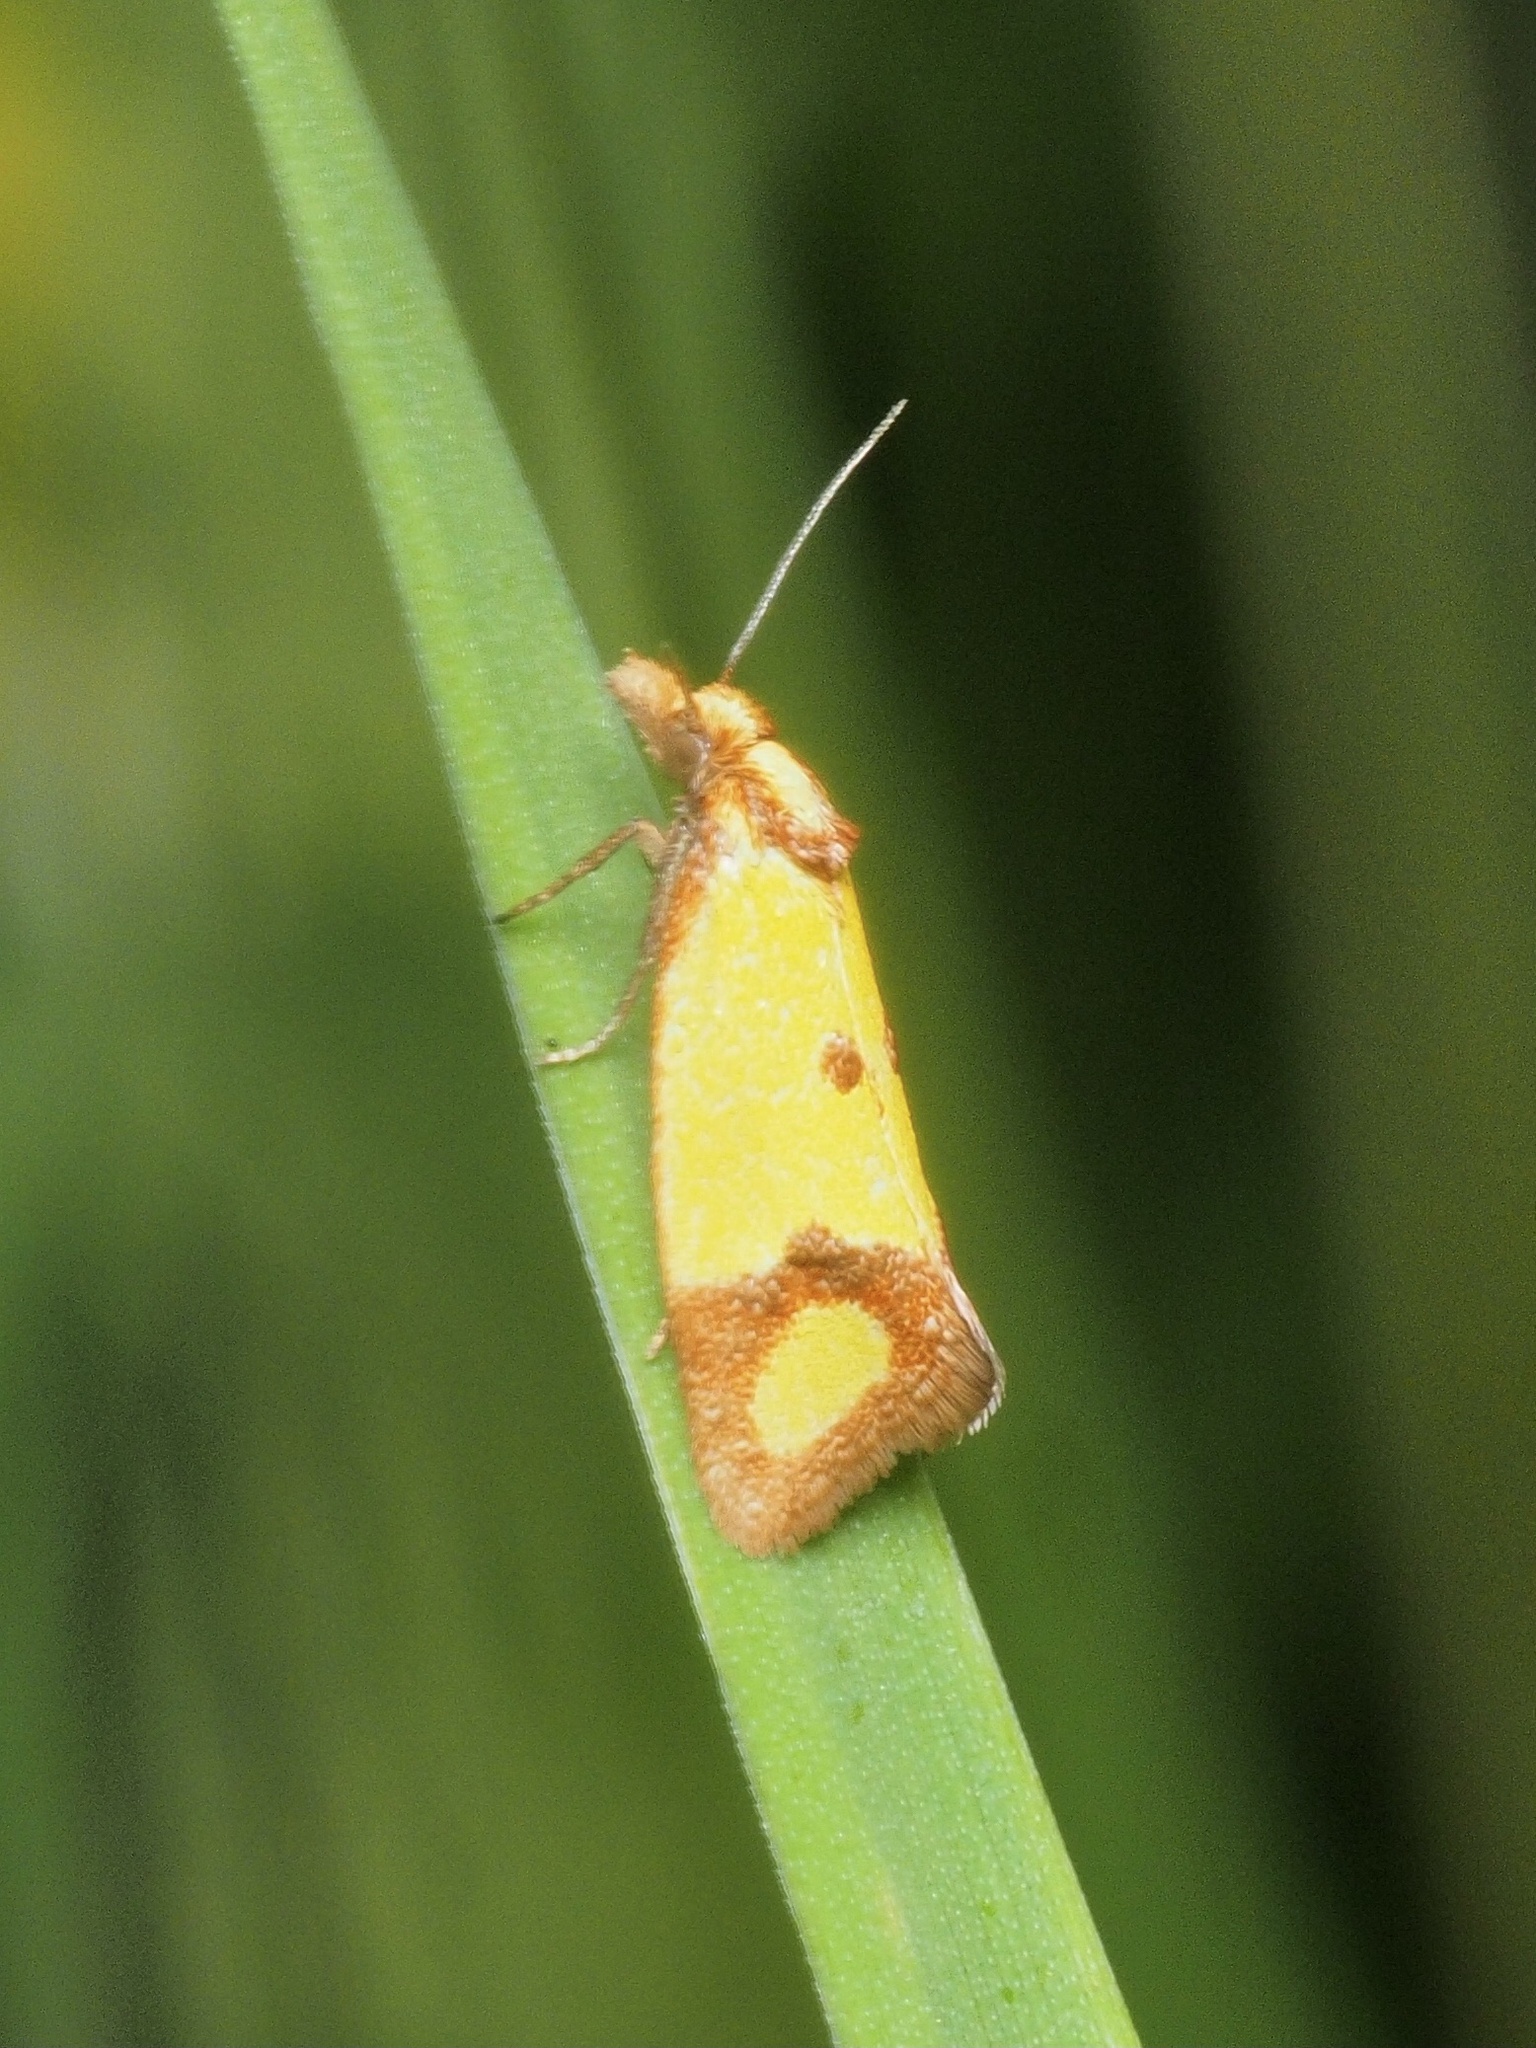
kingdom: Animalia
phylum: Arthropoda
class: Insecta
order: Lepidoptera
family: Tortricidae
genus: Agapeta
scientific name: Agapeta zoegana
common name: Sulfur knapweed root moth
